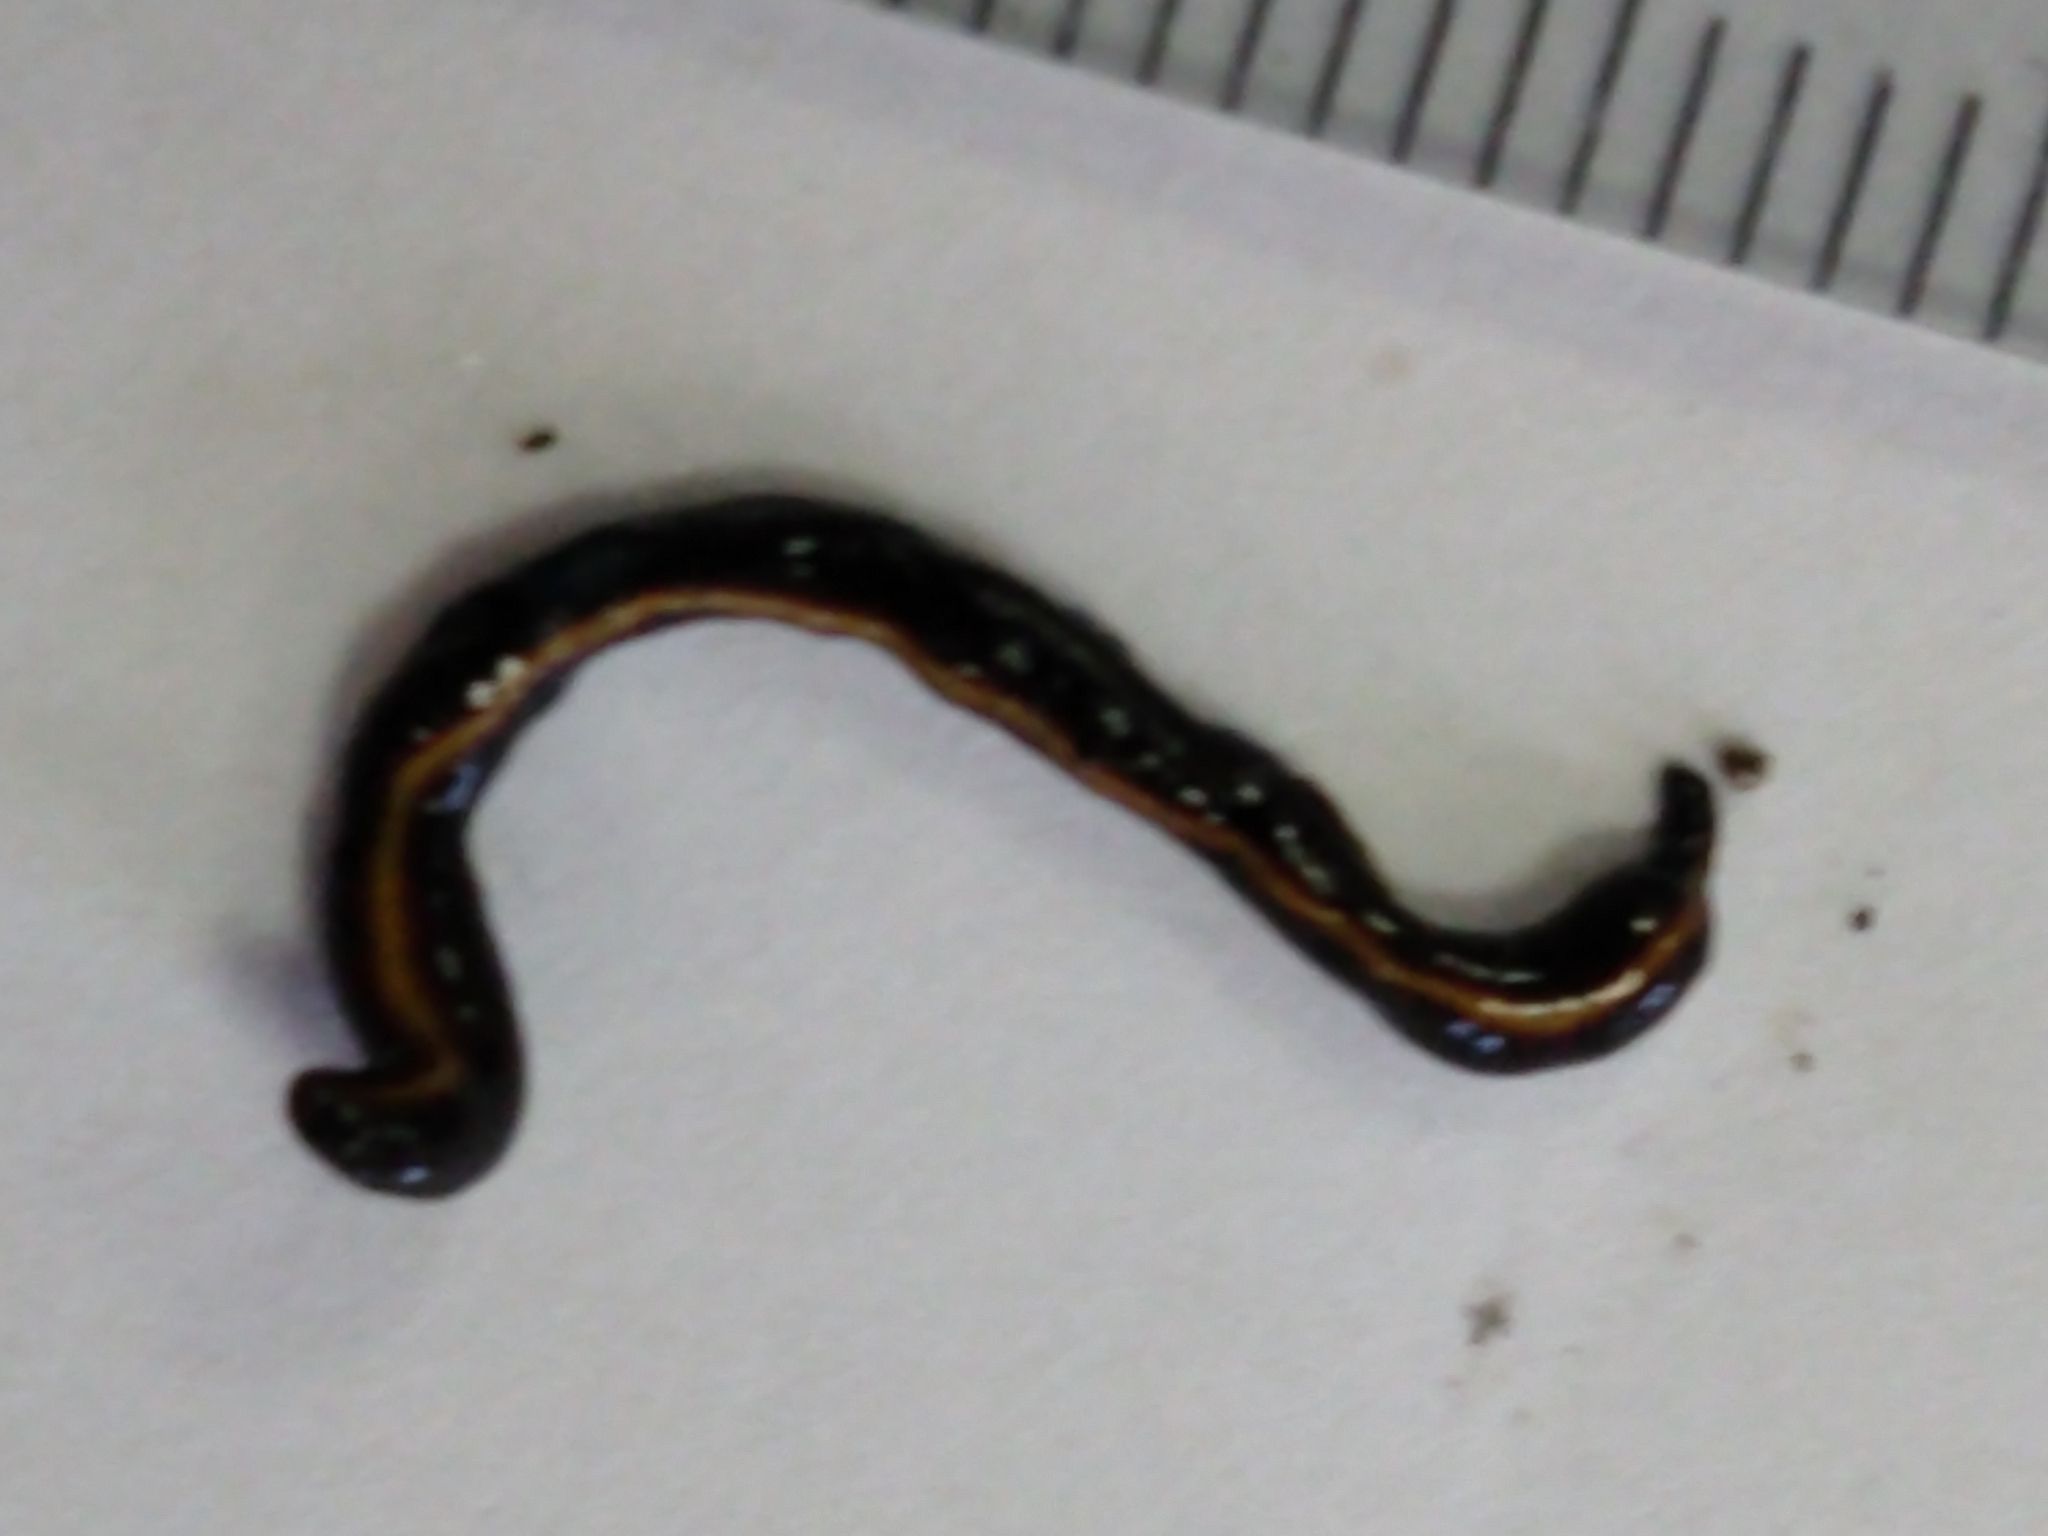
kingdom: Animalia
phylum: Platyhelminthes
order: Tricladida
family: Geoplanidae
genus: Caenoplana
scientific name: Caenoplana coerulea
